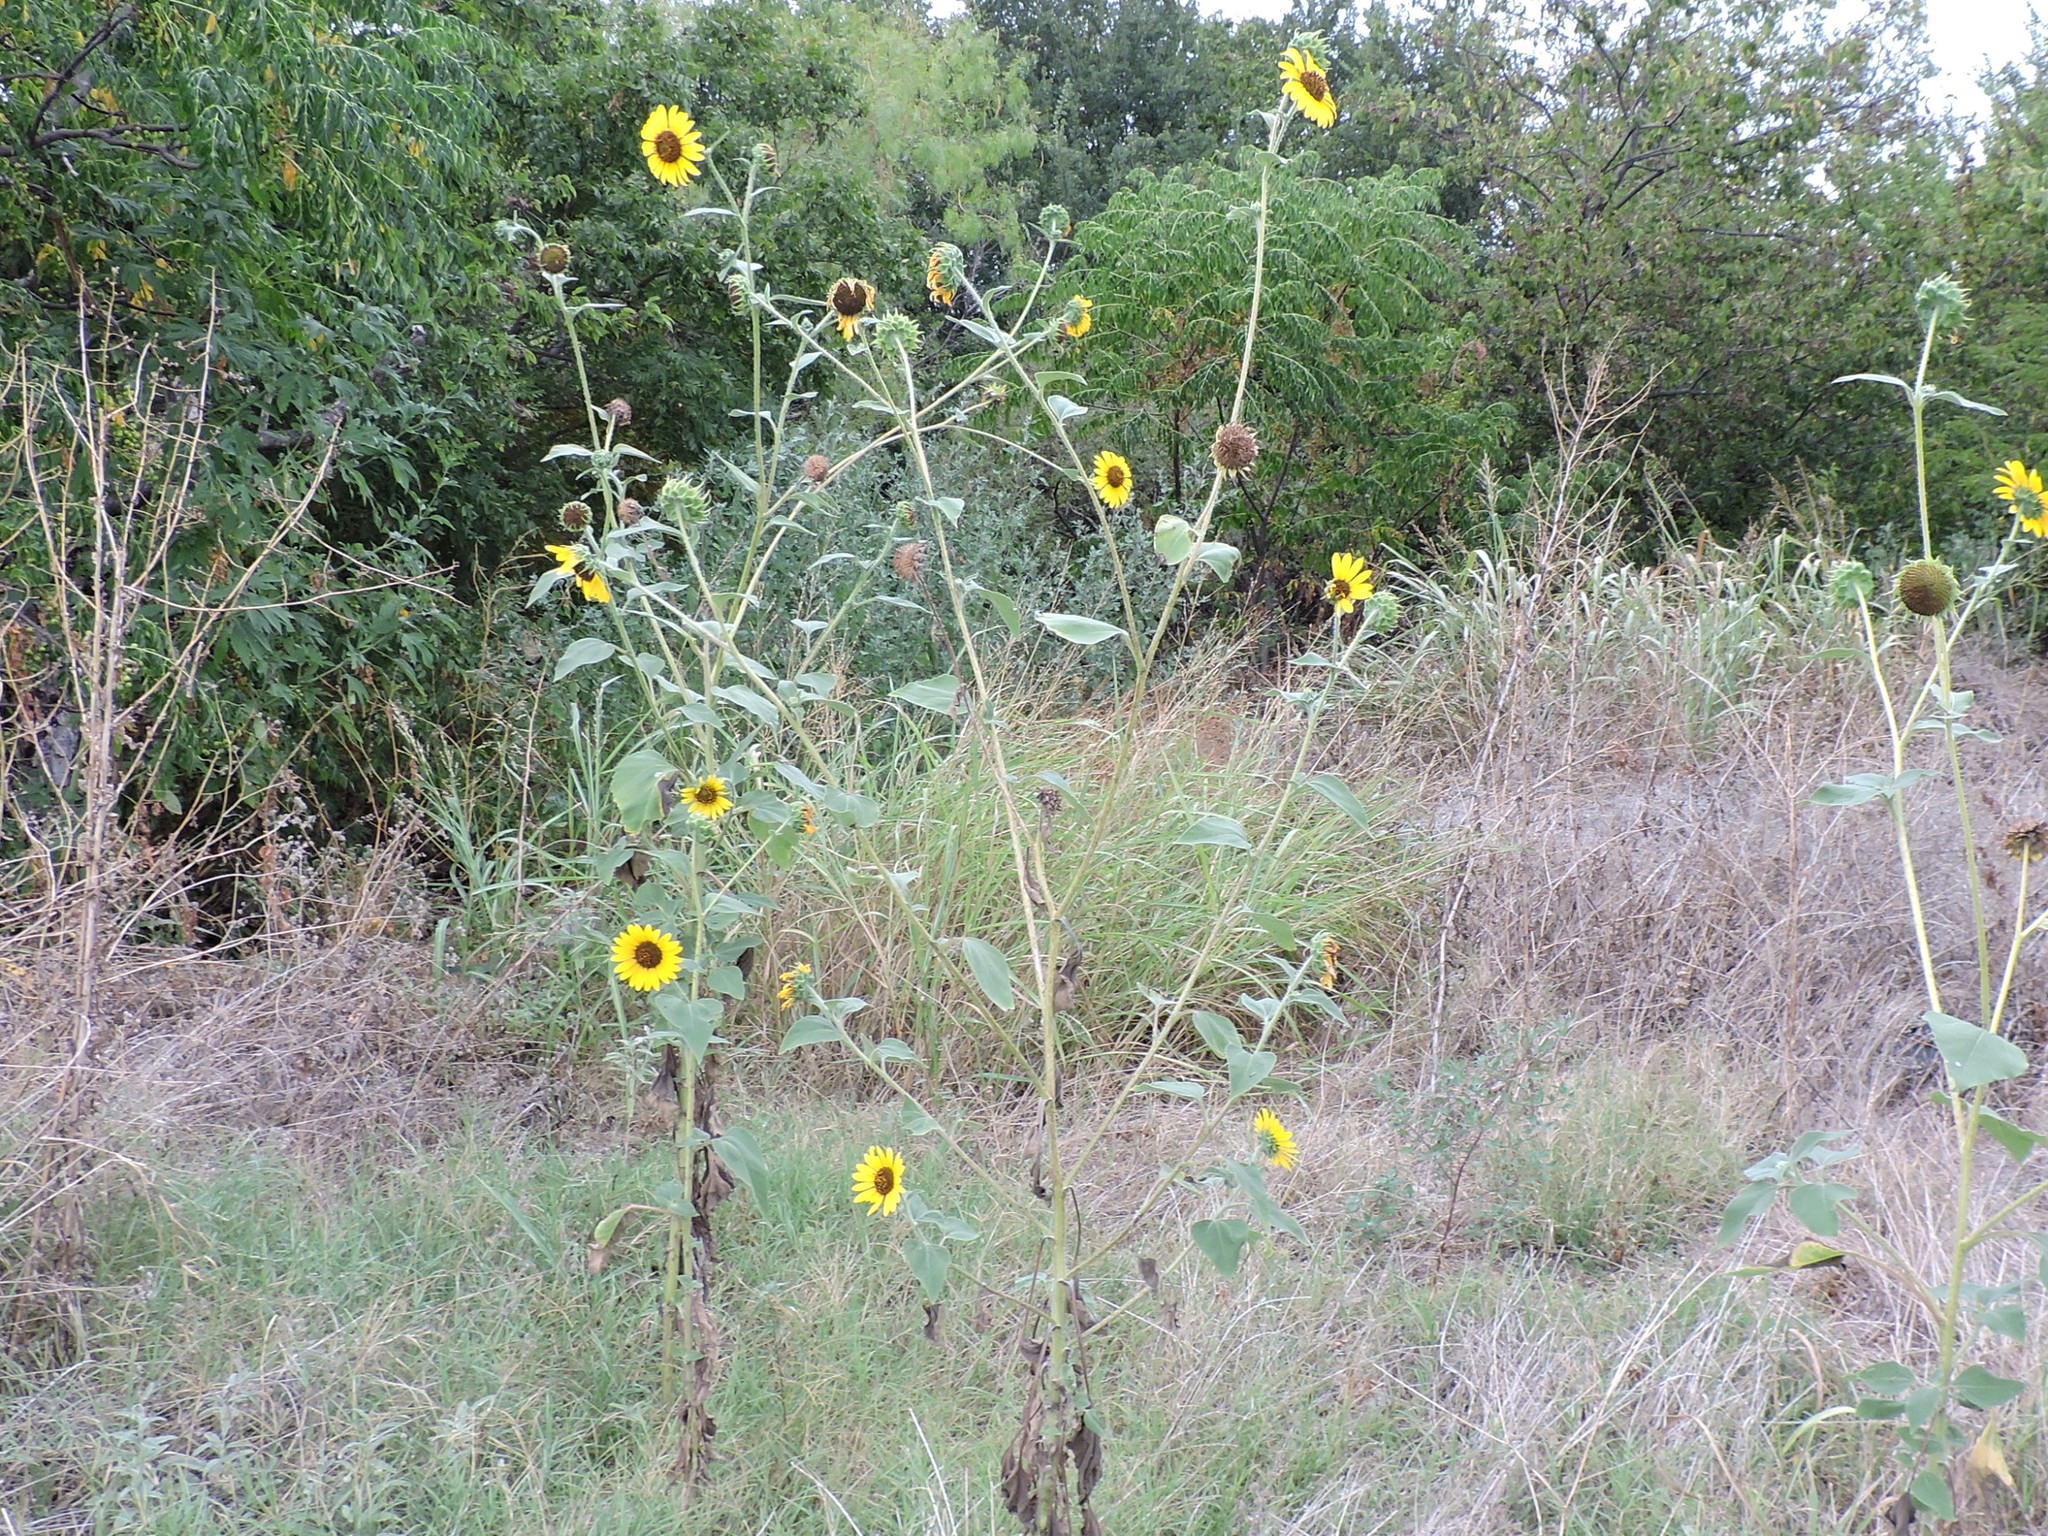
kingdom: Plantae
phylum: Tracheophyta
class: Magnoliopsida
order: Asterales
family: Asteraceae
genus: Helianthus
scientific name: Helianthus annuus
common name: Sunflower
